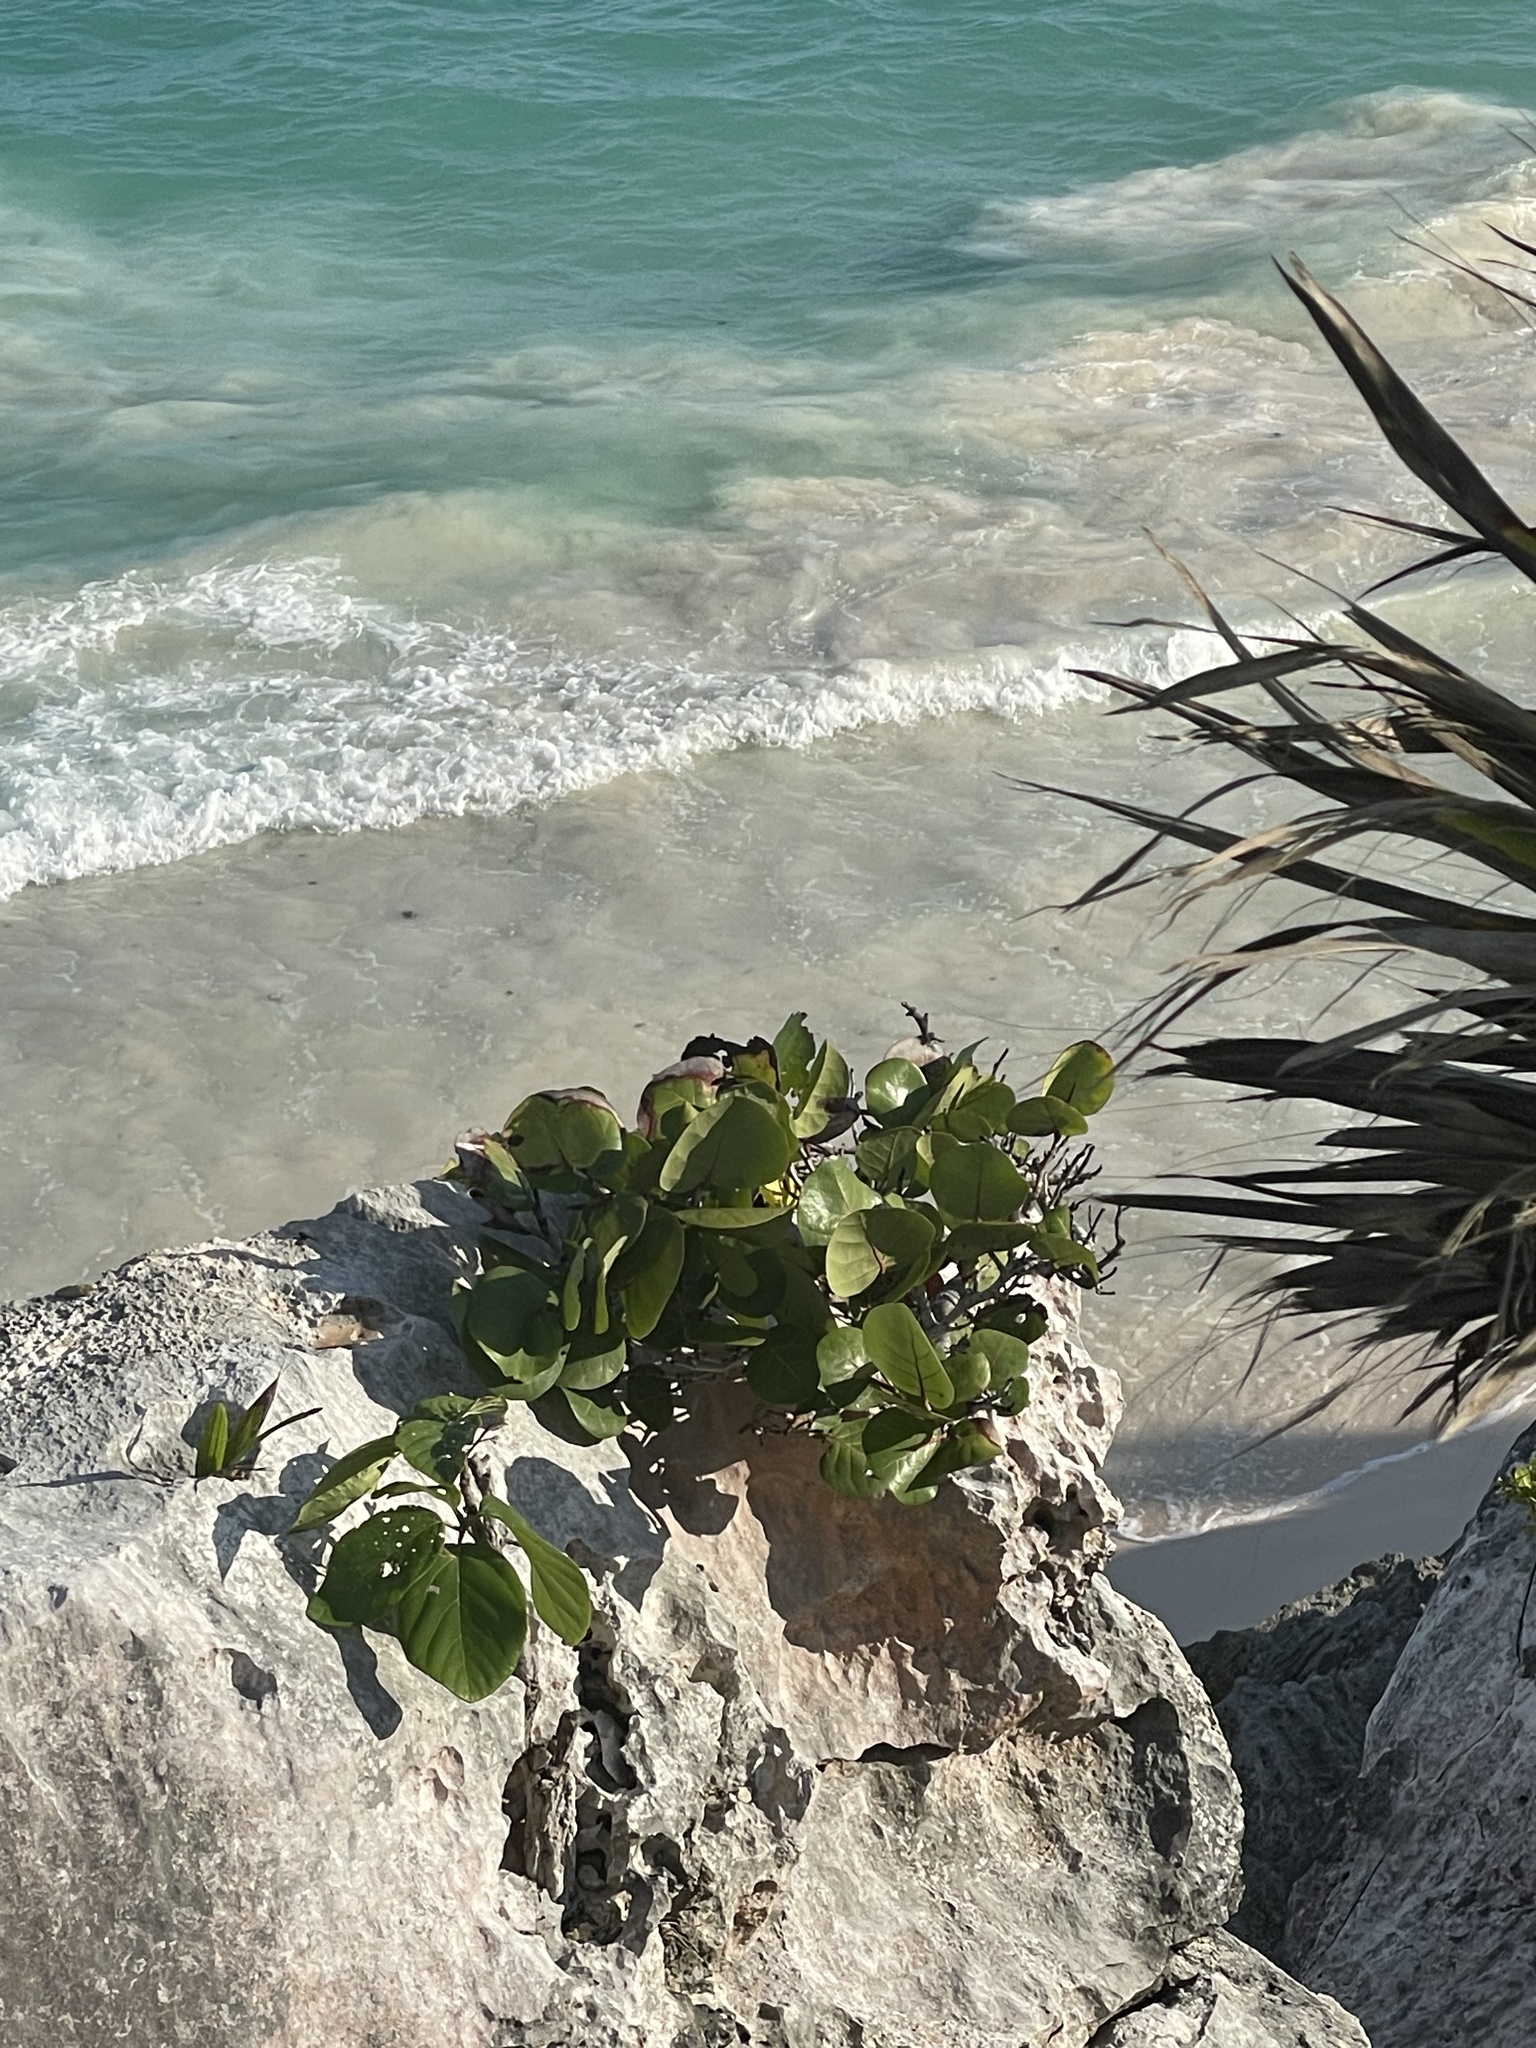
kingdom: Plantae
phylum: Tracheophyta
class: Magnoliopsida
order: Caryophyllales
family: Polygonaceae
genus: Coccoloba
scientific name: Coccoloba uvifera
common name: Seagrape
